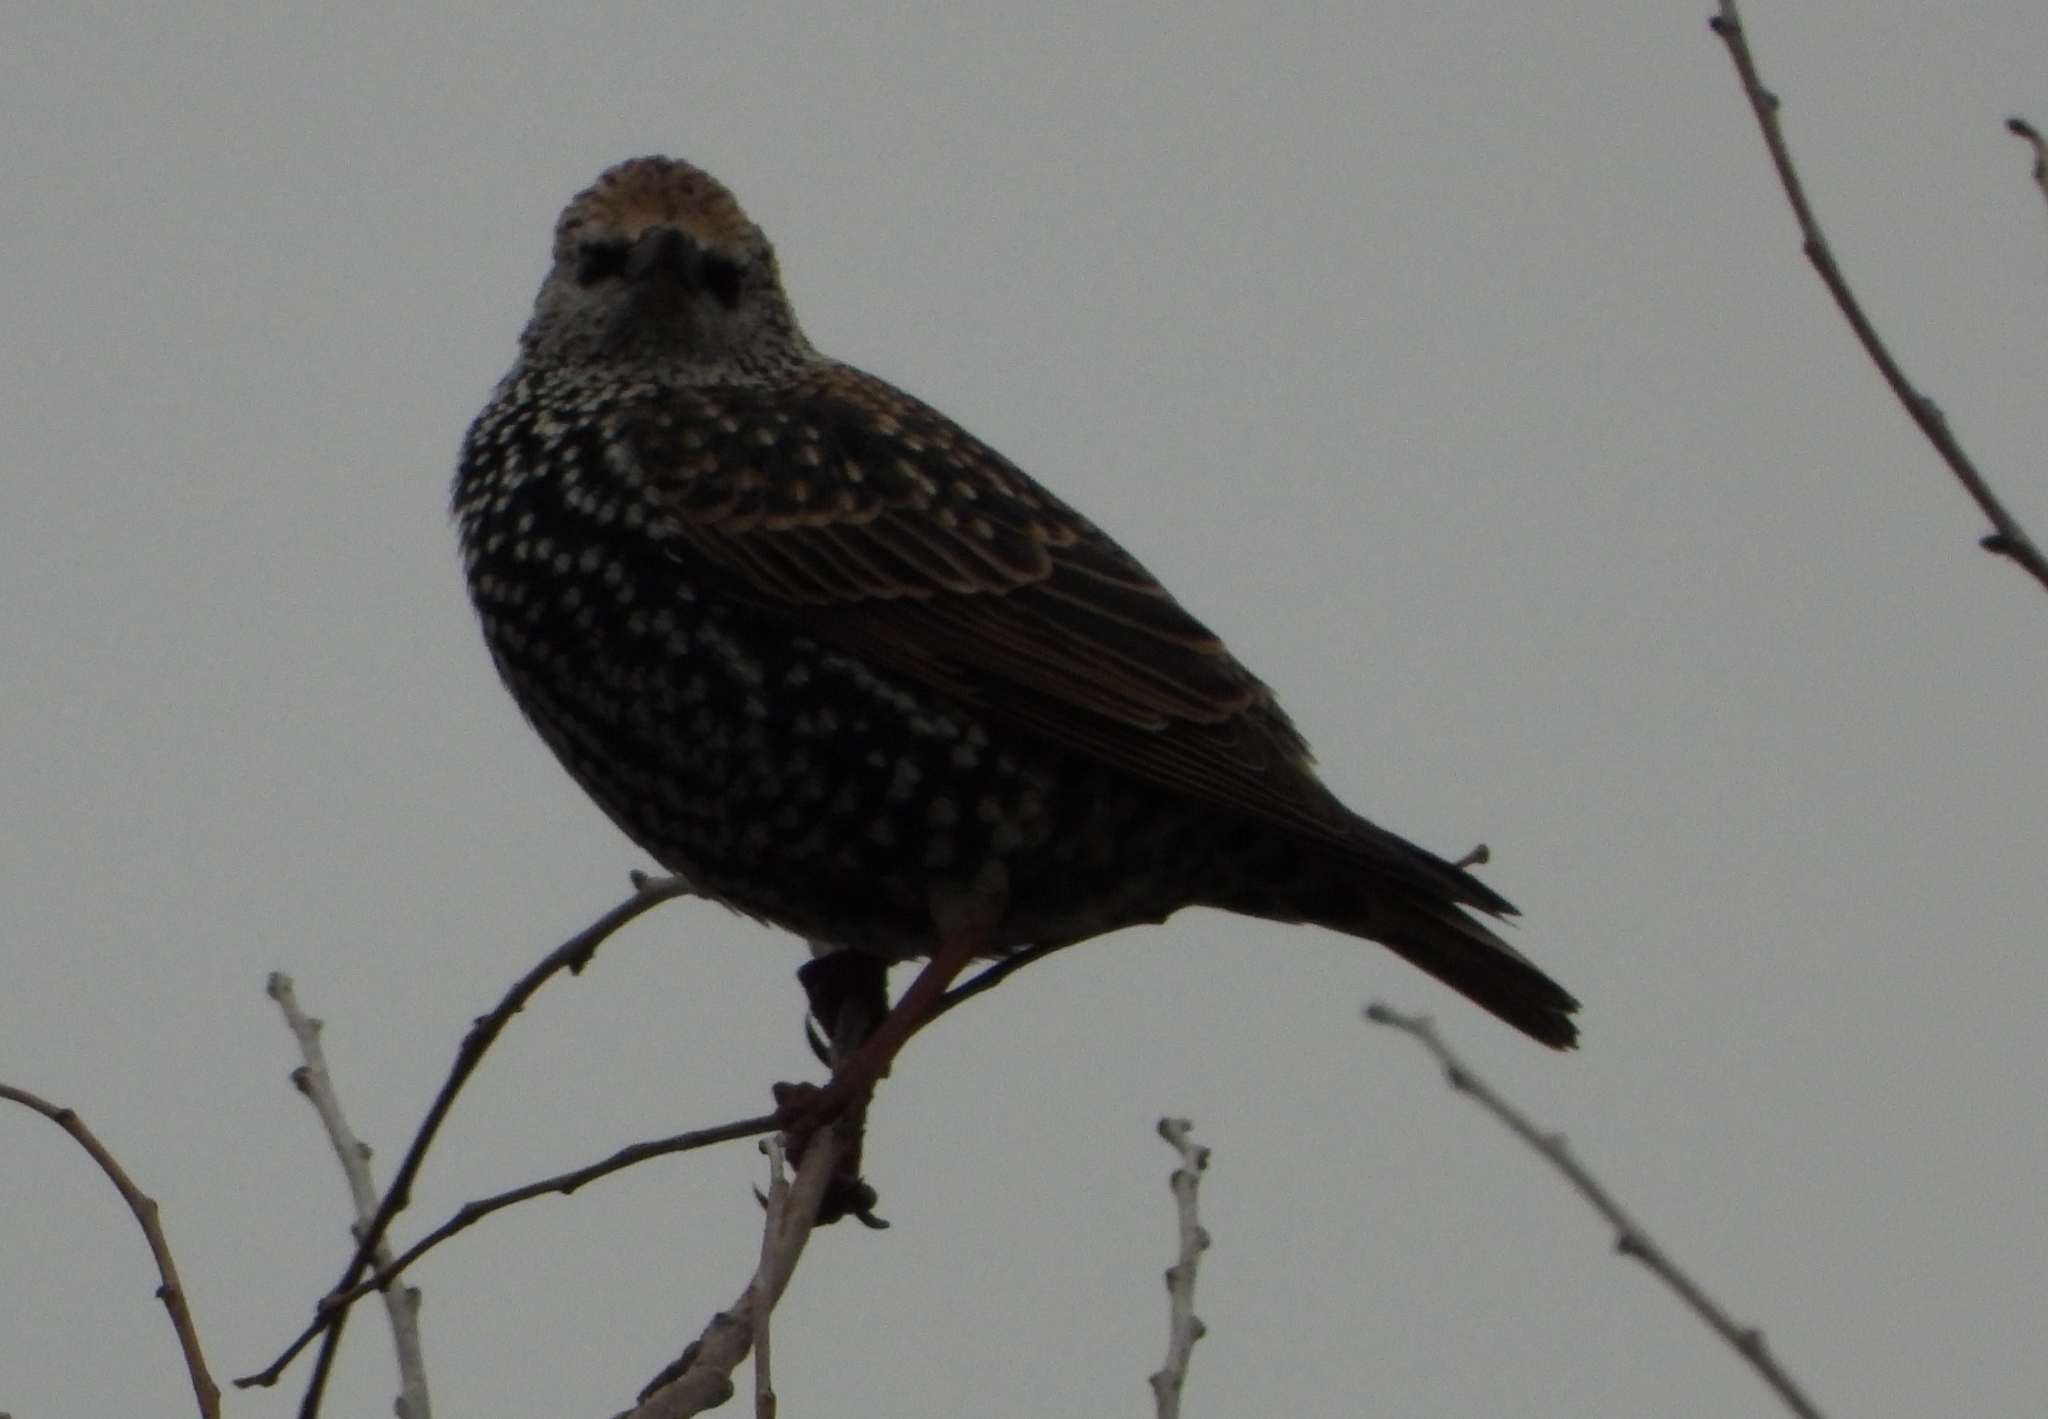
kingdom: Animalia
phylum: Chordata
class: Aves
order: Passeriformes
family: Sturnidae
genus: Sturnus
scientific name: Sturnus vulgaris
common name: Common starling
